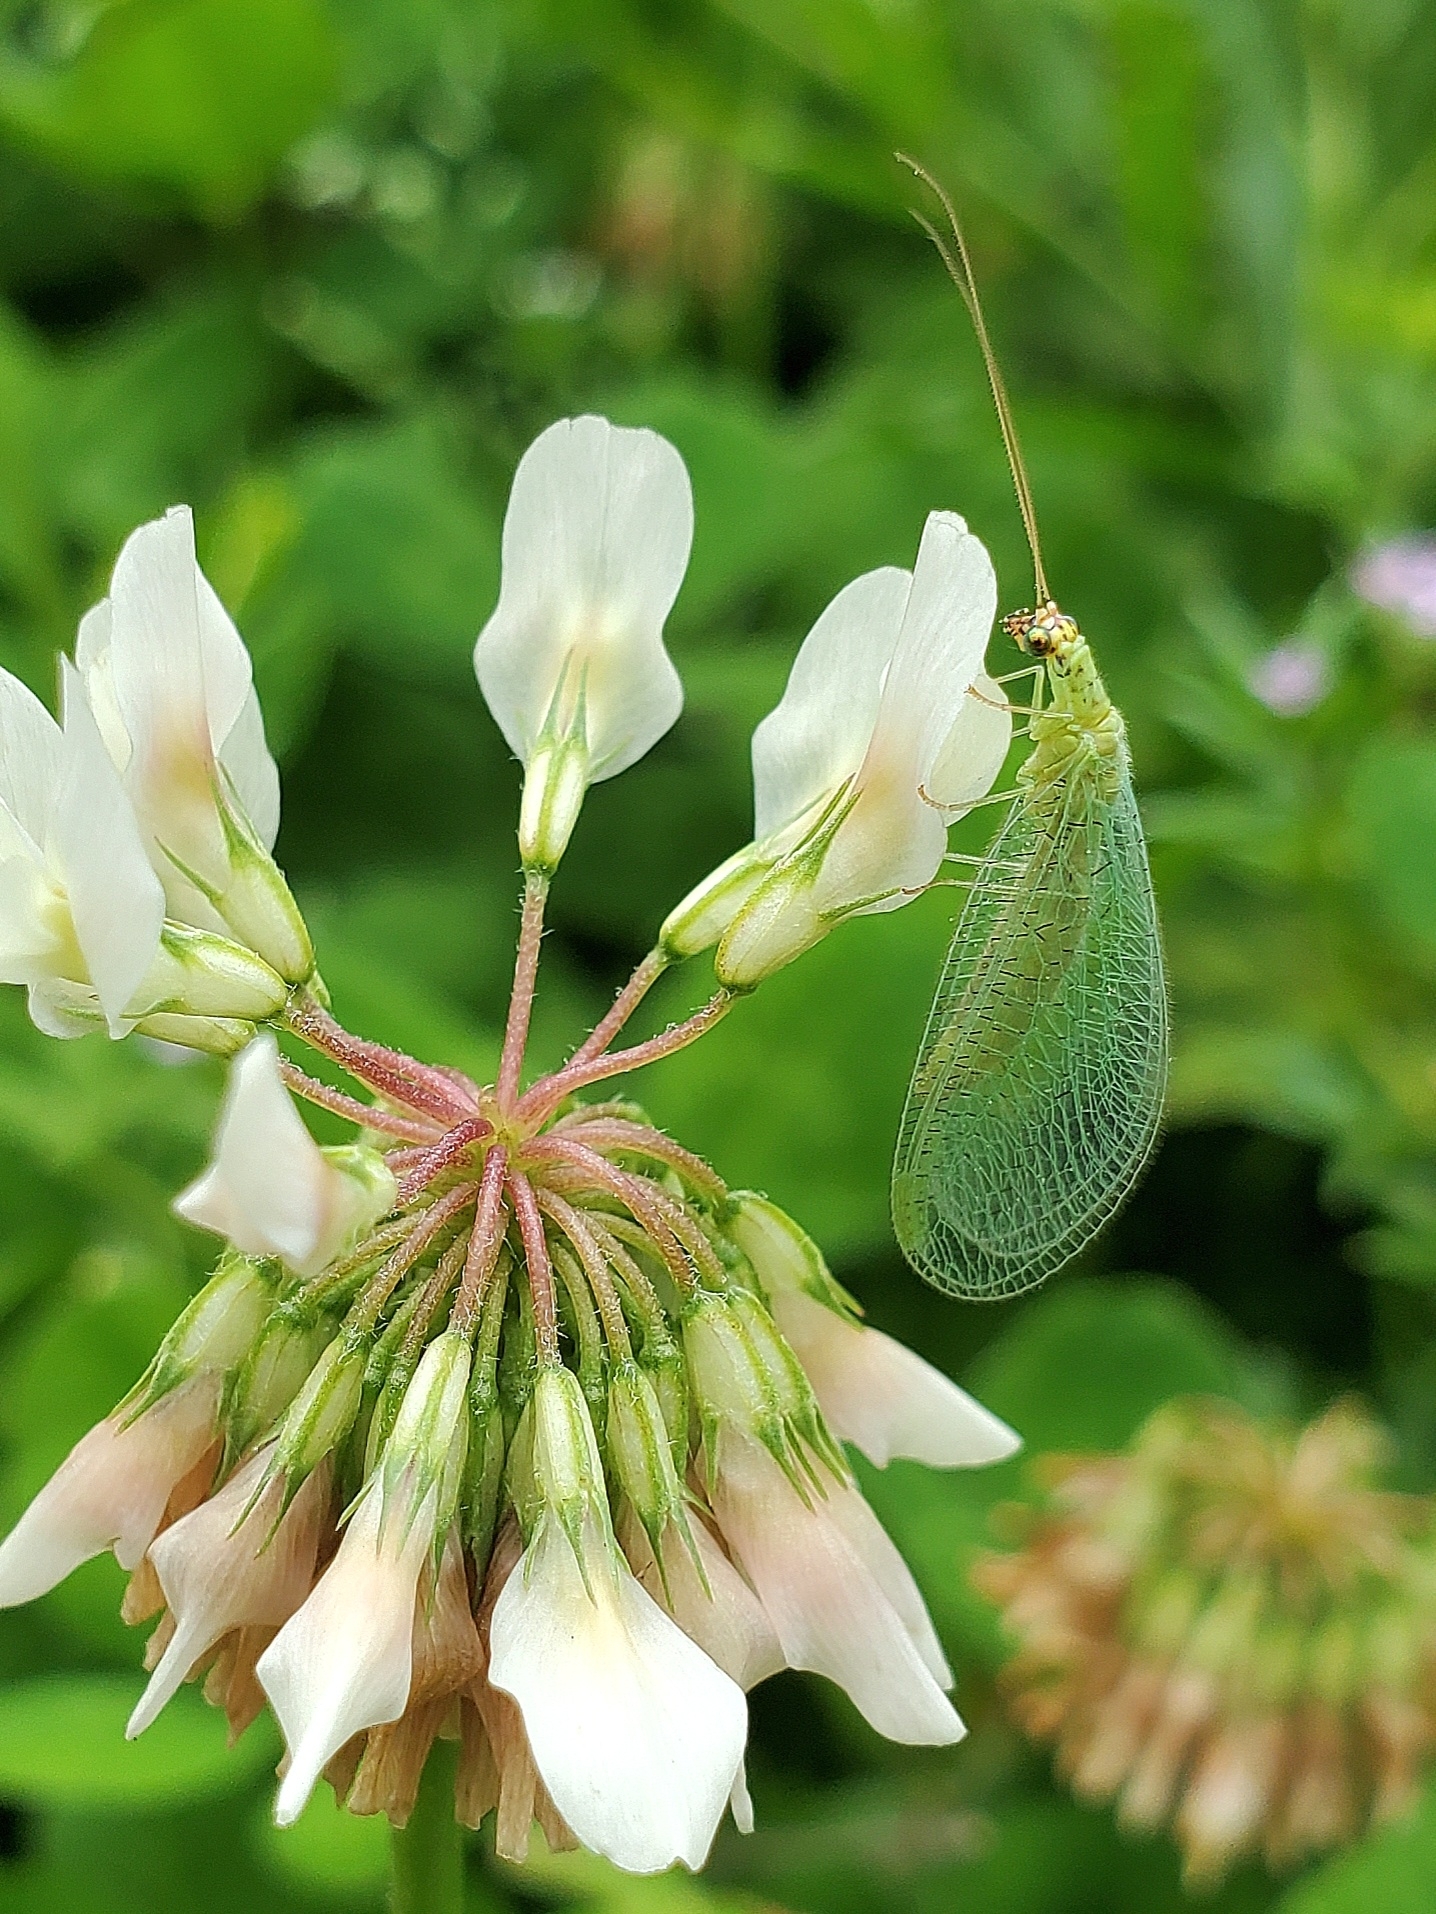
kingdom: Animalia
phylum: Arthropoda
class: Insecta
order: Neuroptera
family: Chrysopidae
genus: Chrysopa
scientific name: Chrysopa oculata
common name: Golden-eyed lacewing
